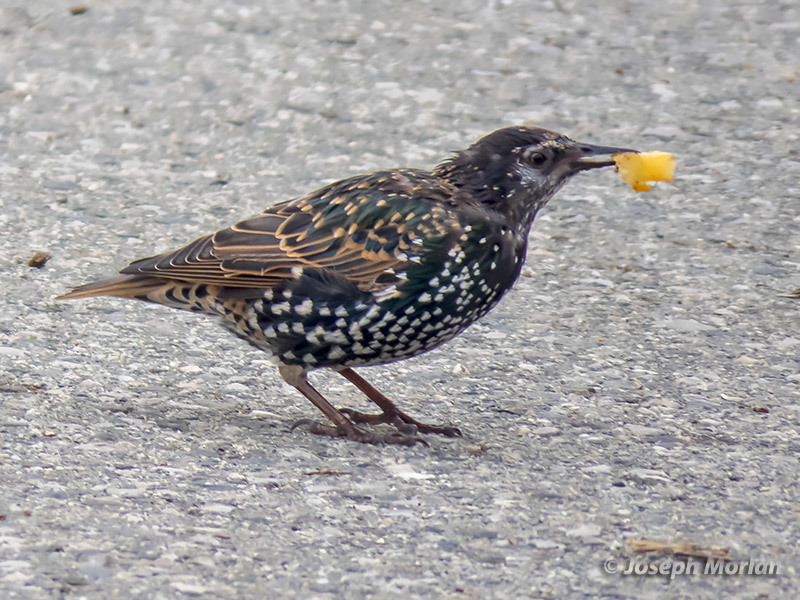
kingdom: Animalia
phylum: Chordata
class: Aves
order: Passeriformes
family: Sturnidae
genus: Sturnus
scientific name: Sturnus vulgaris
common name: Common starling
